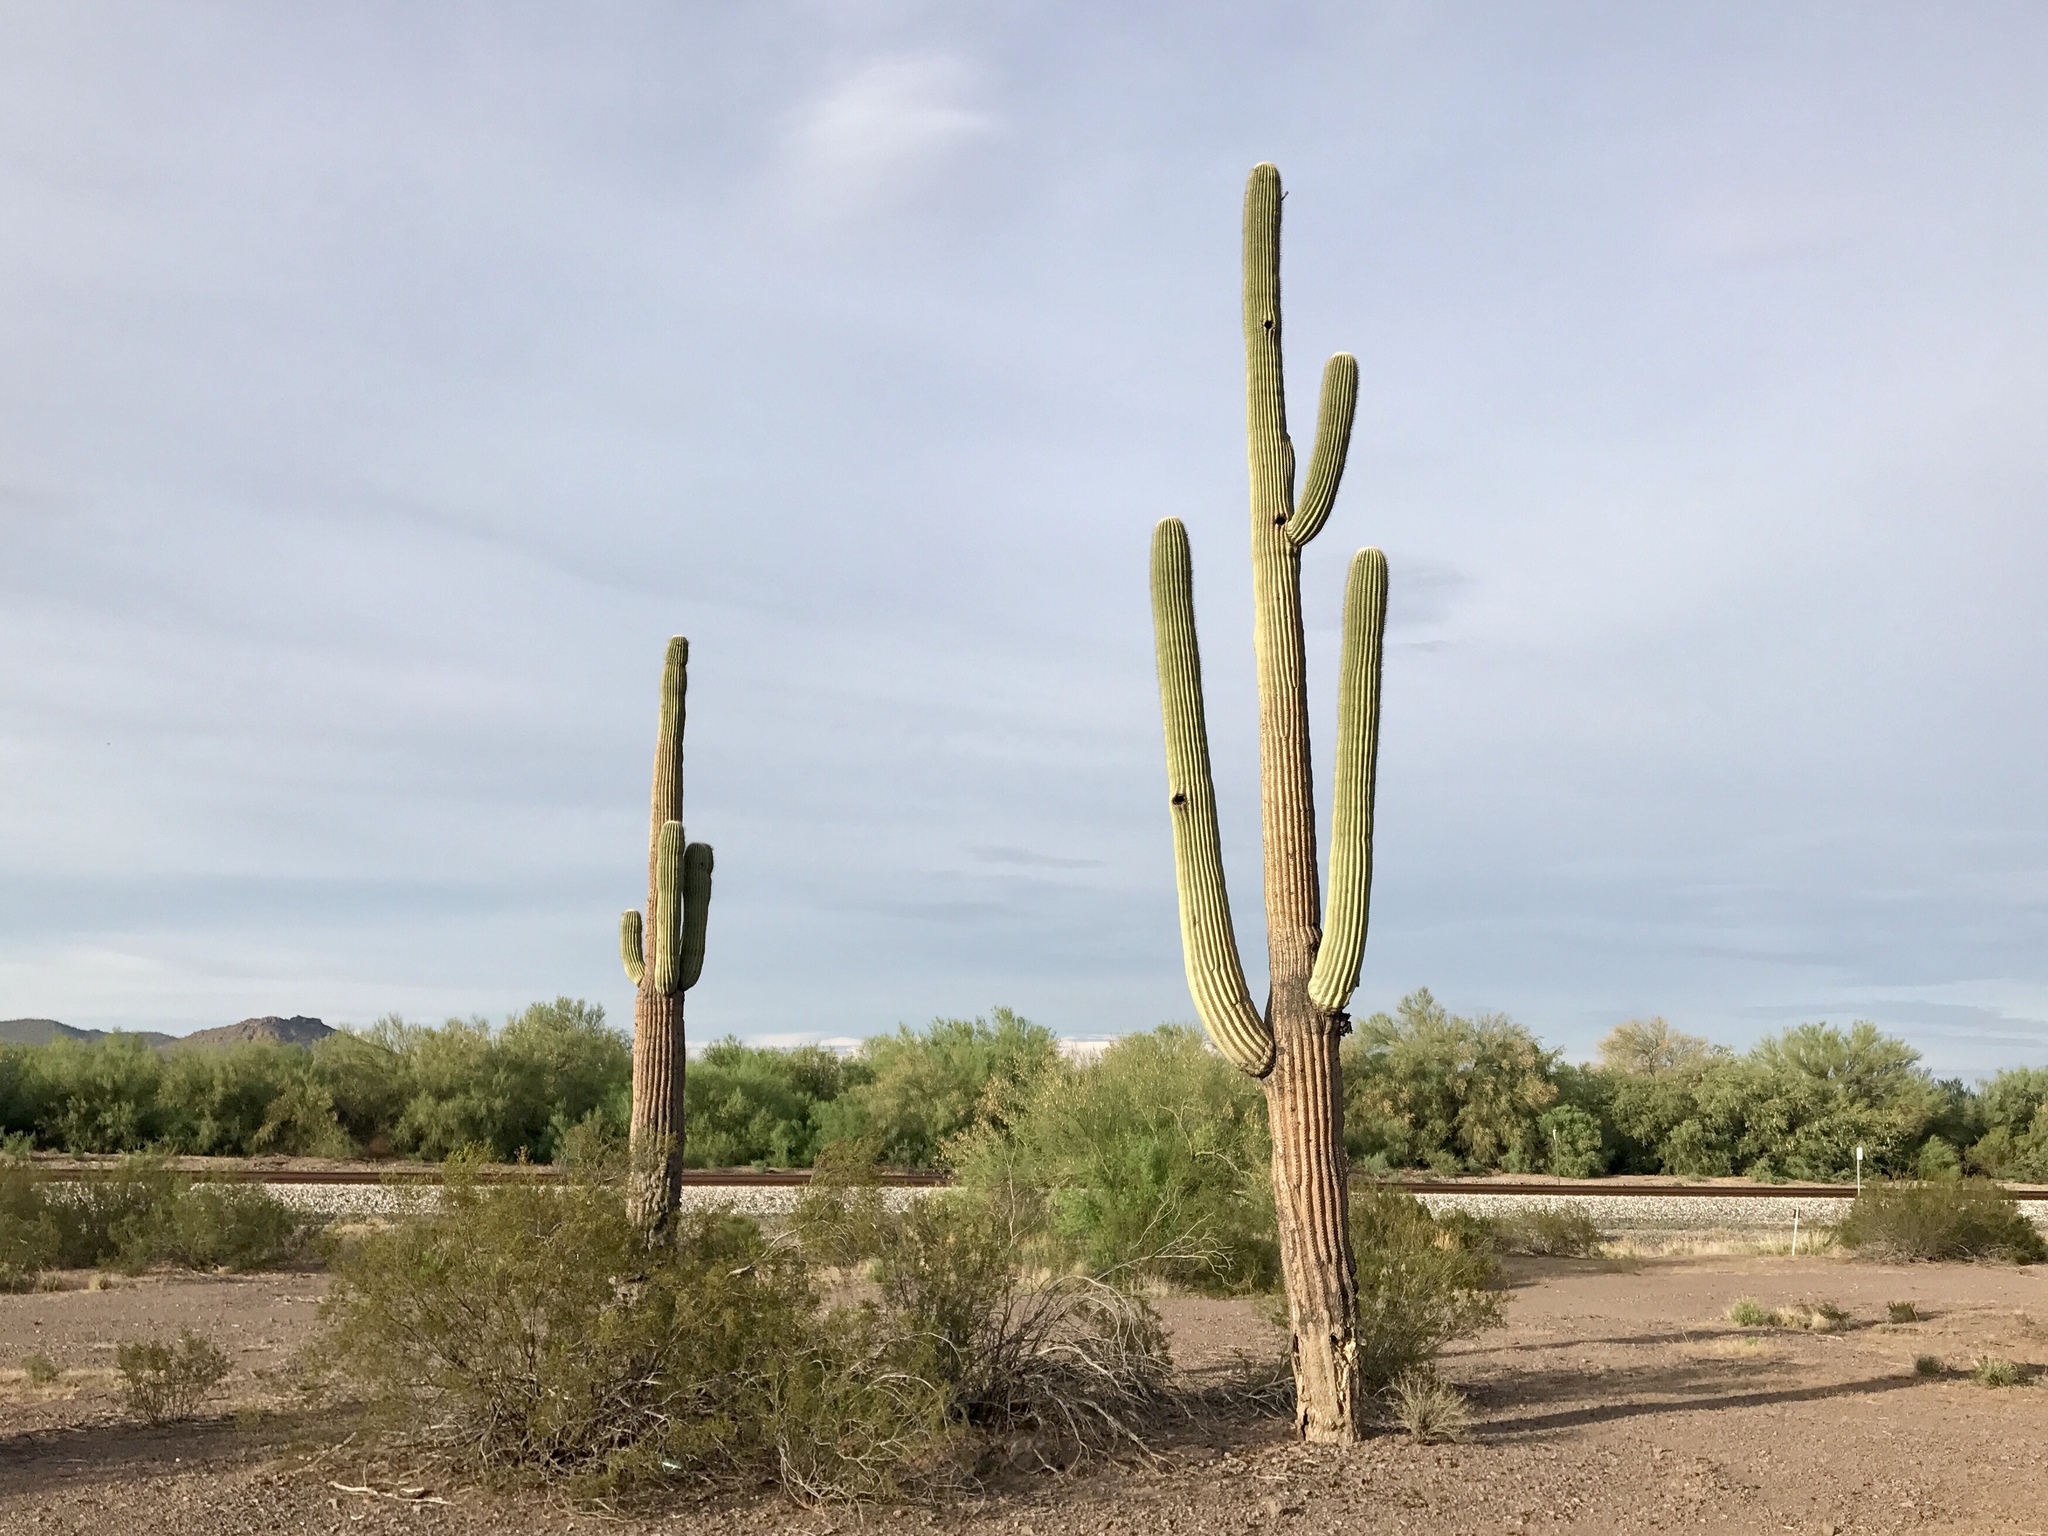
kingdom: Plantae
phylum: Tracheophyta
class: Magnoliopsida
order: Caryophyllales
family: Cactaceae
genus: Carnegiea
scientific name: Carnegiea gigantea
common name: Saguaro
